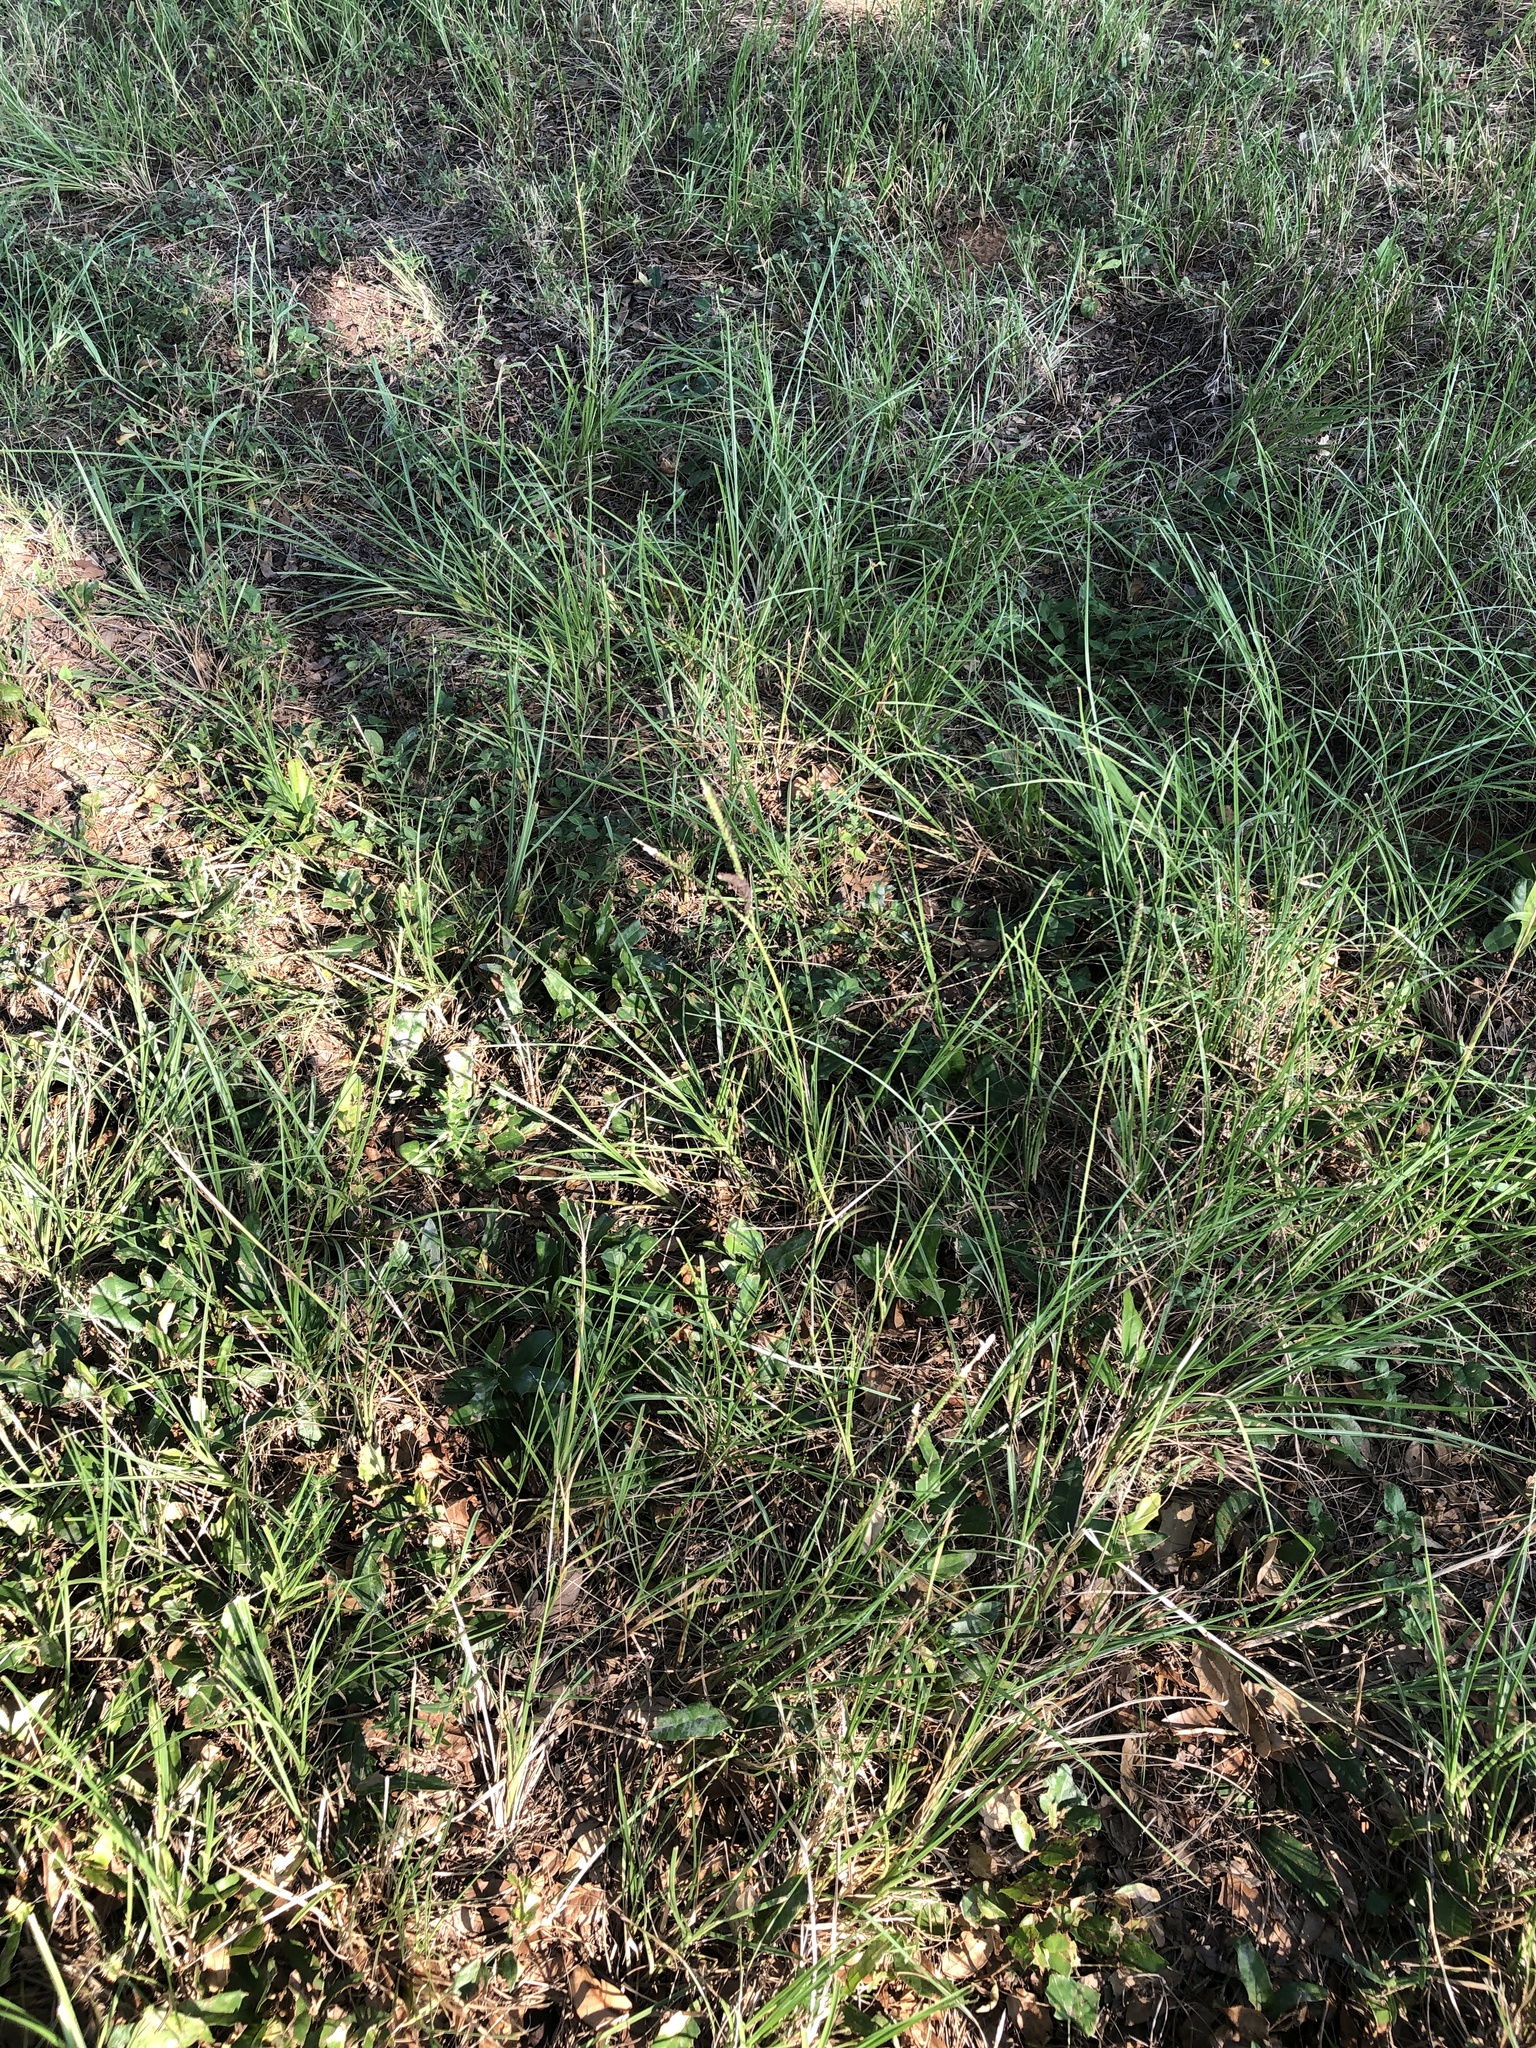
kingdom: Plantae
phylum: Tracheophyta
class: Liliopsida
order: Poales
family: Poaceae
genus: Paspalum
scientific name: Paspalum notatum
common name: Bahiagrass
